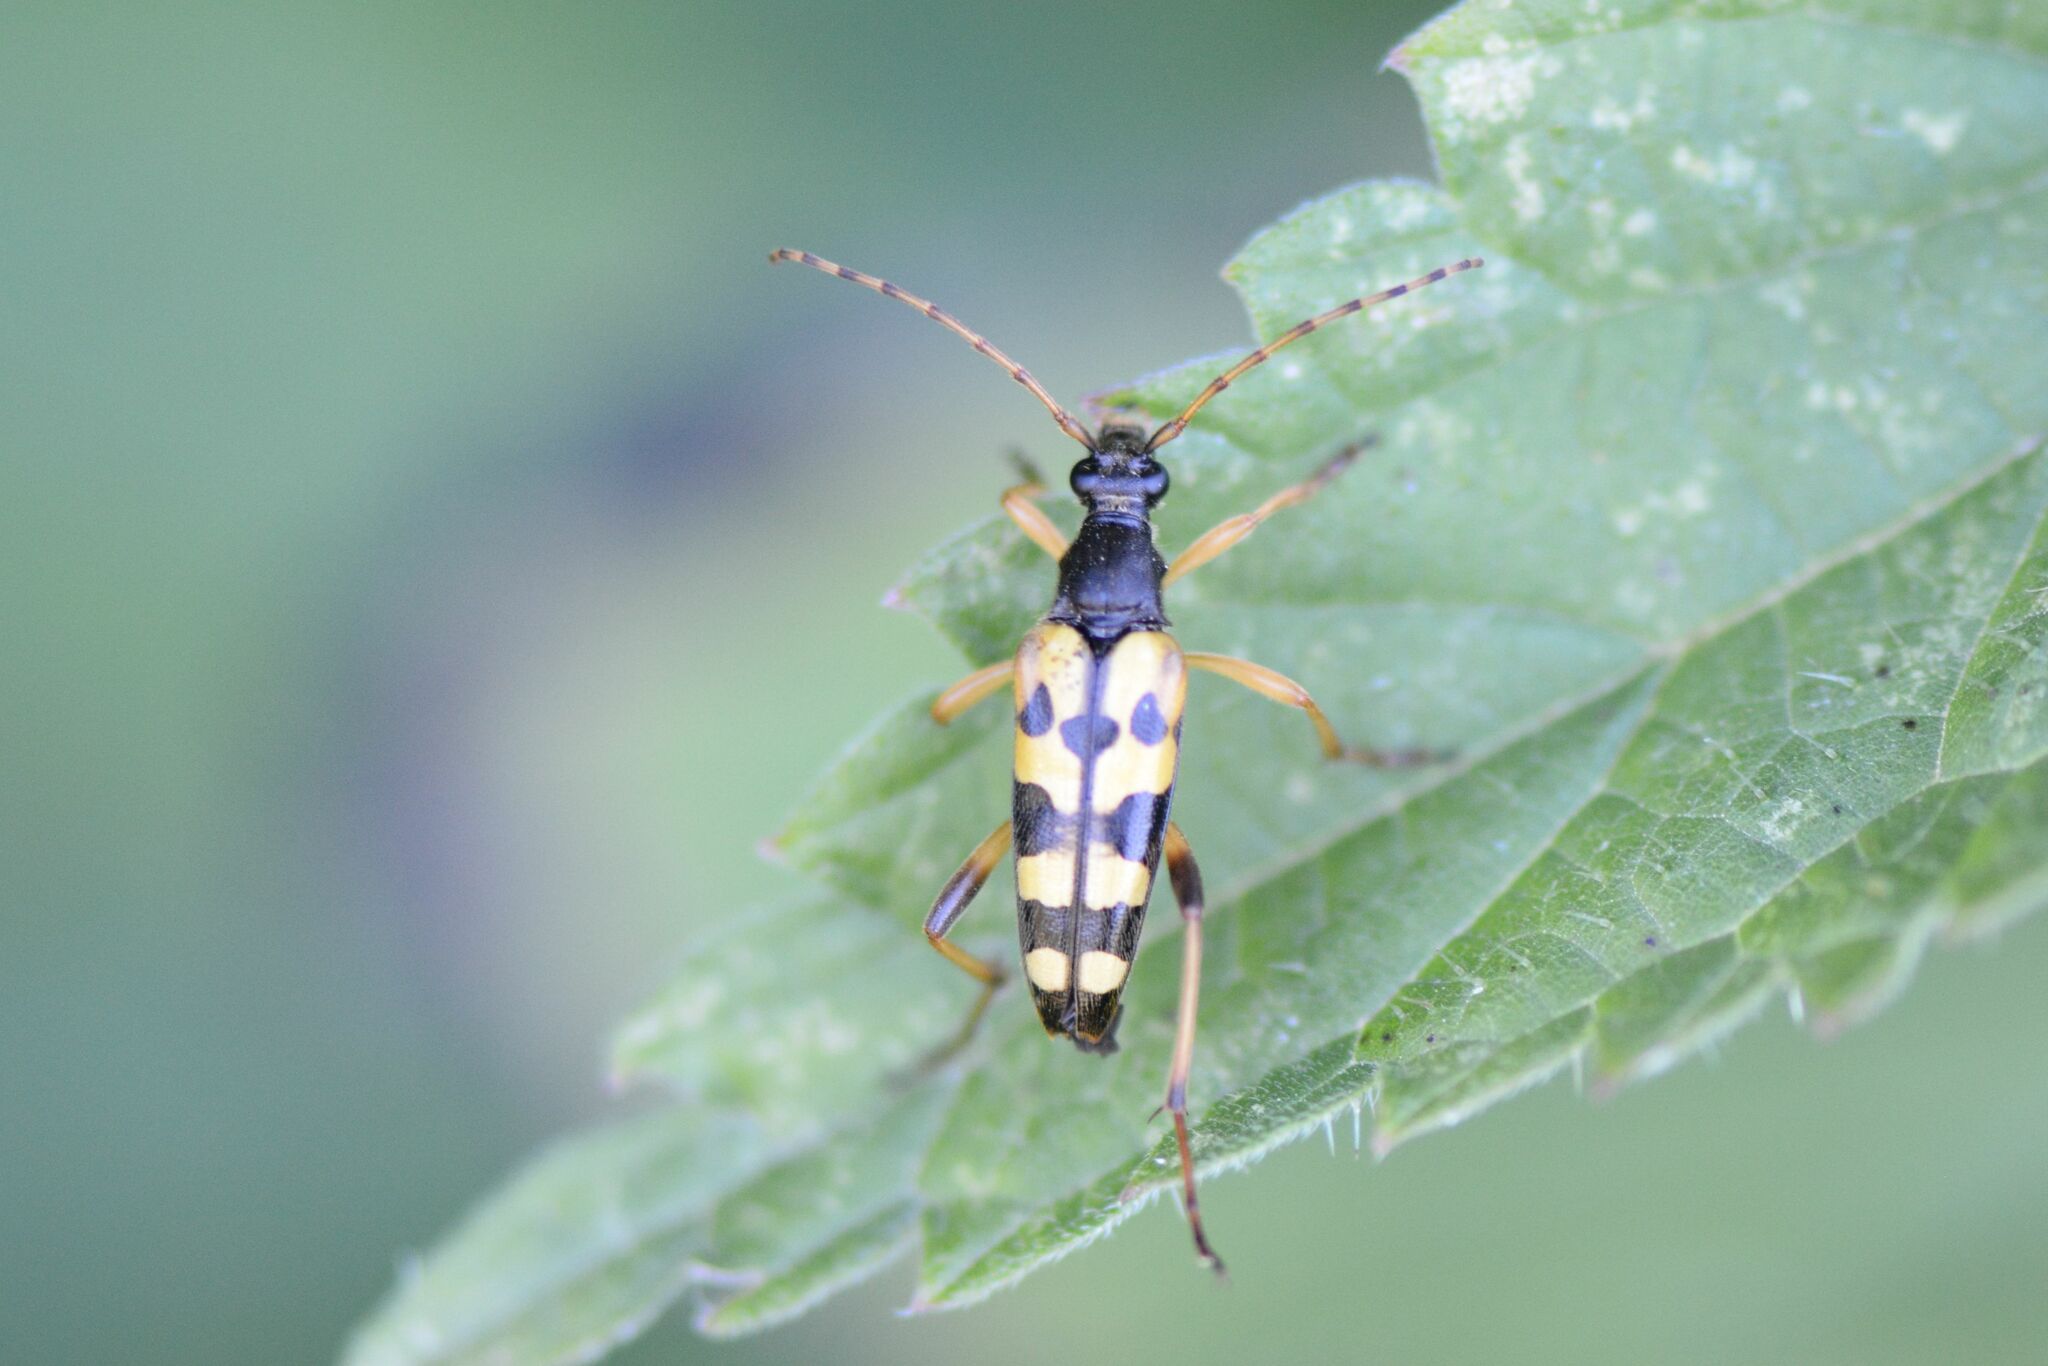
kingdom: Animalia
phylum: Arthropoda
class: Insecta
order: Coleoptera
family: Cerambycidae
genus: Rutpela
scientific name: Rutpela maculata
